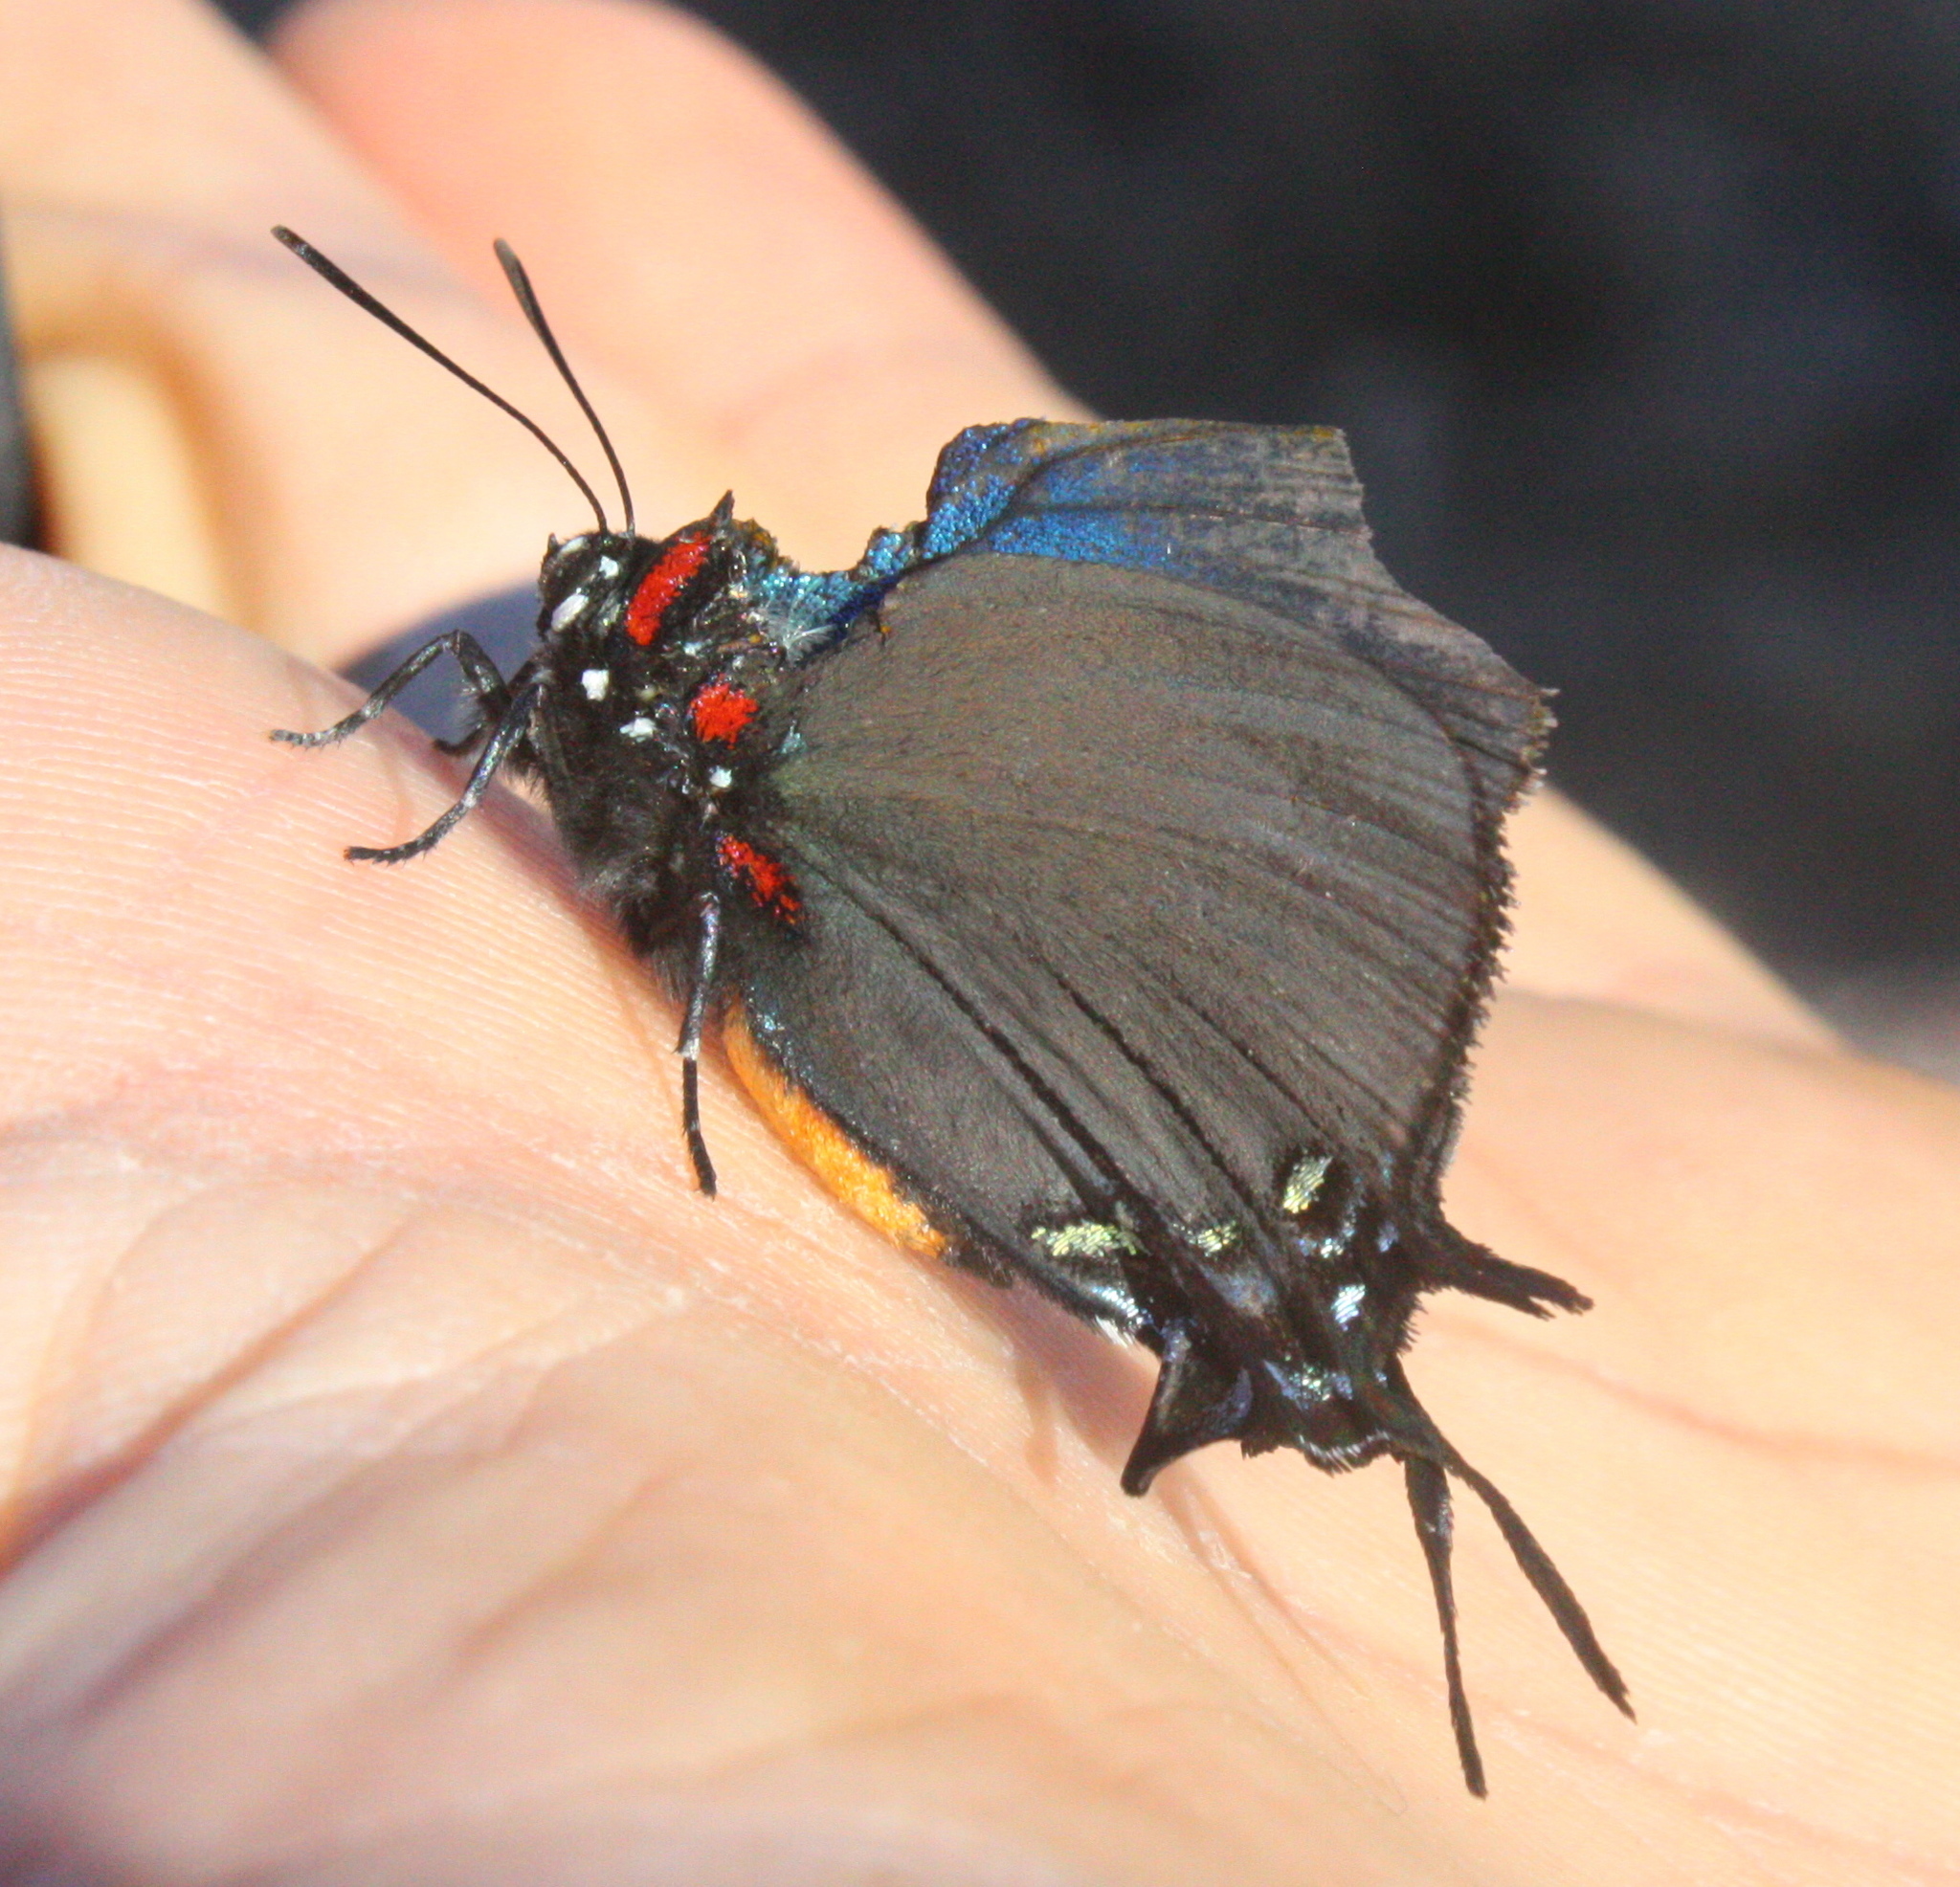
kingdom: Animalia
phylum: Arthropoda
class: Insecta
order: Lepidoptera
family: Lycaenidae
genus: Atlides
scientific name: Atlides halesus
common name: Great purple hairstreak
